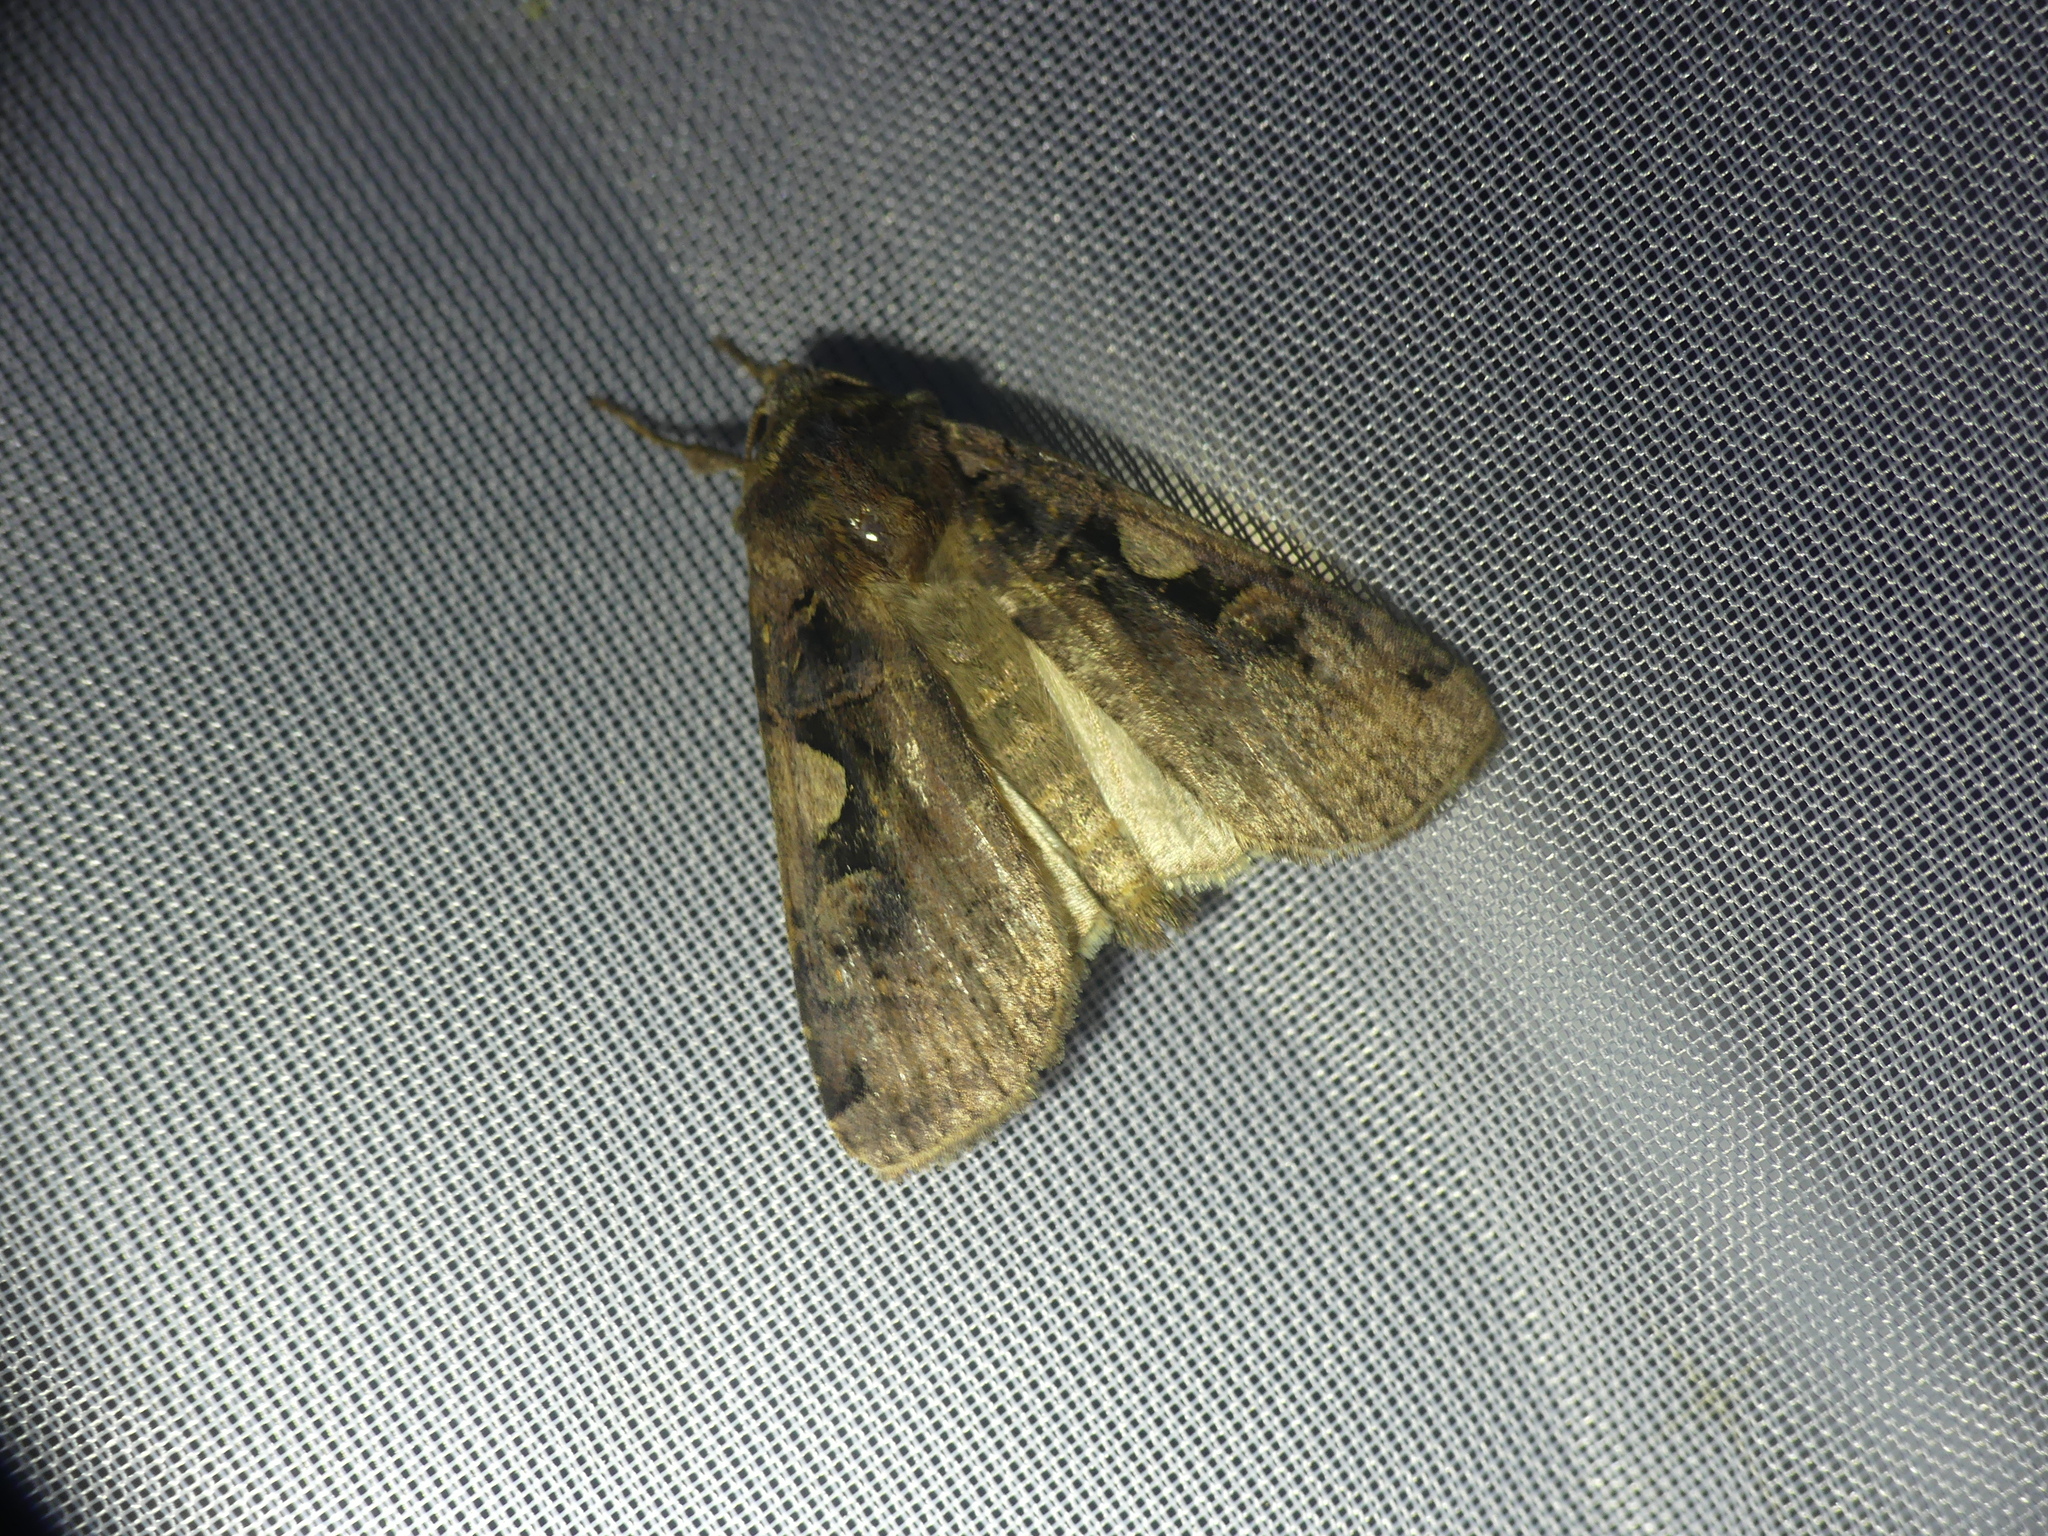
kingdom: Animalia
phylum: Arthropoda
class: Insecta
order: Lepidoptera
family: Noctuidae
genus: Xestia
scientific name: Xestia c-nigrum
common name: Setaceous hebrew character
